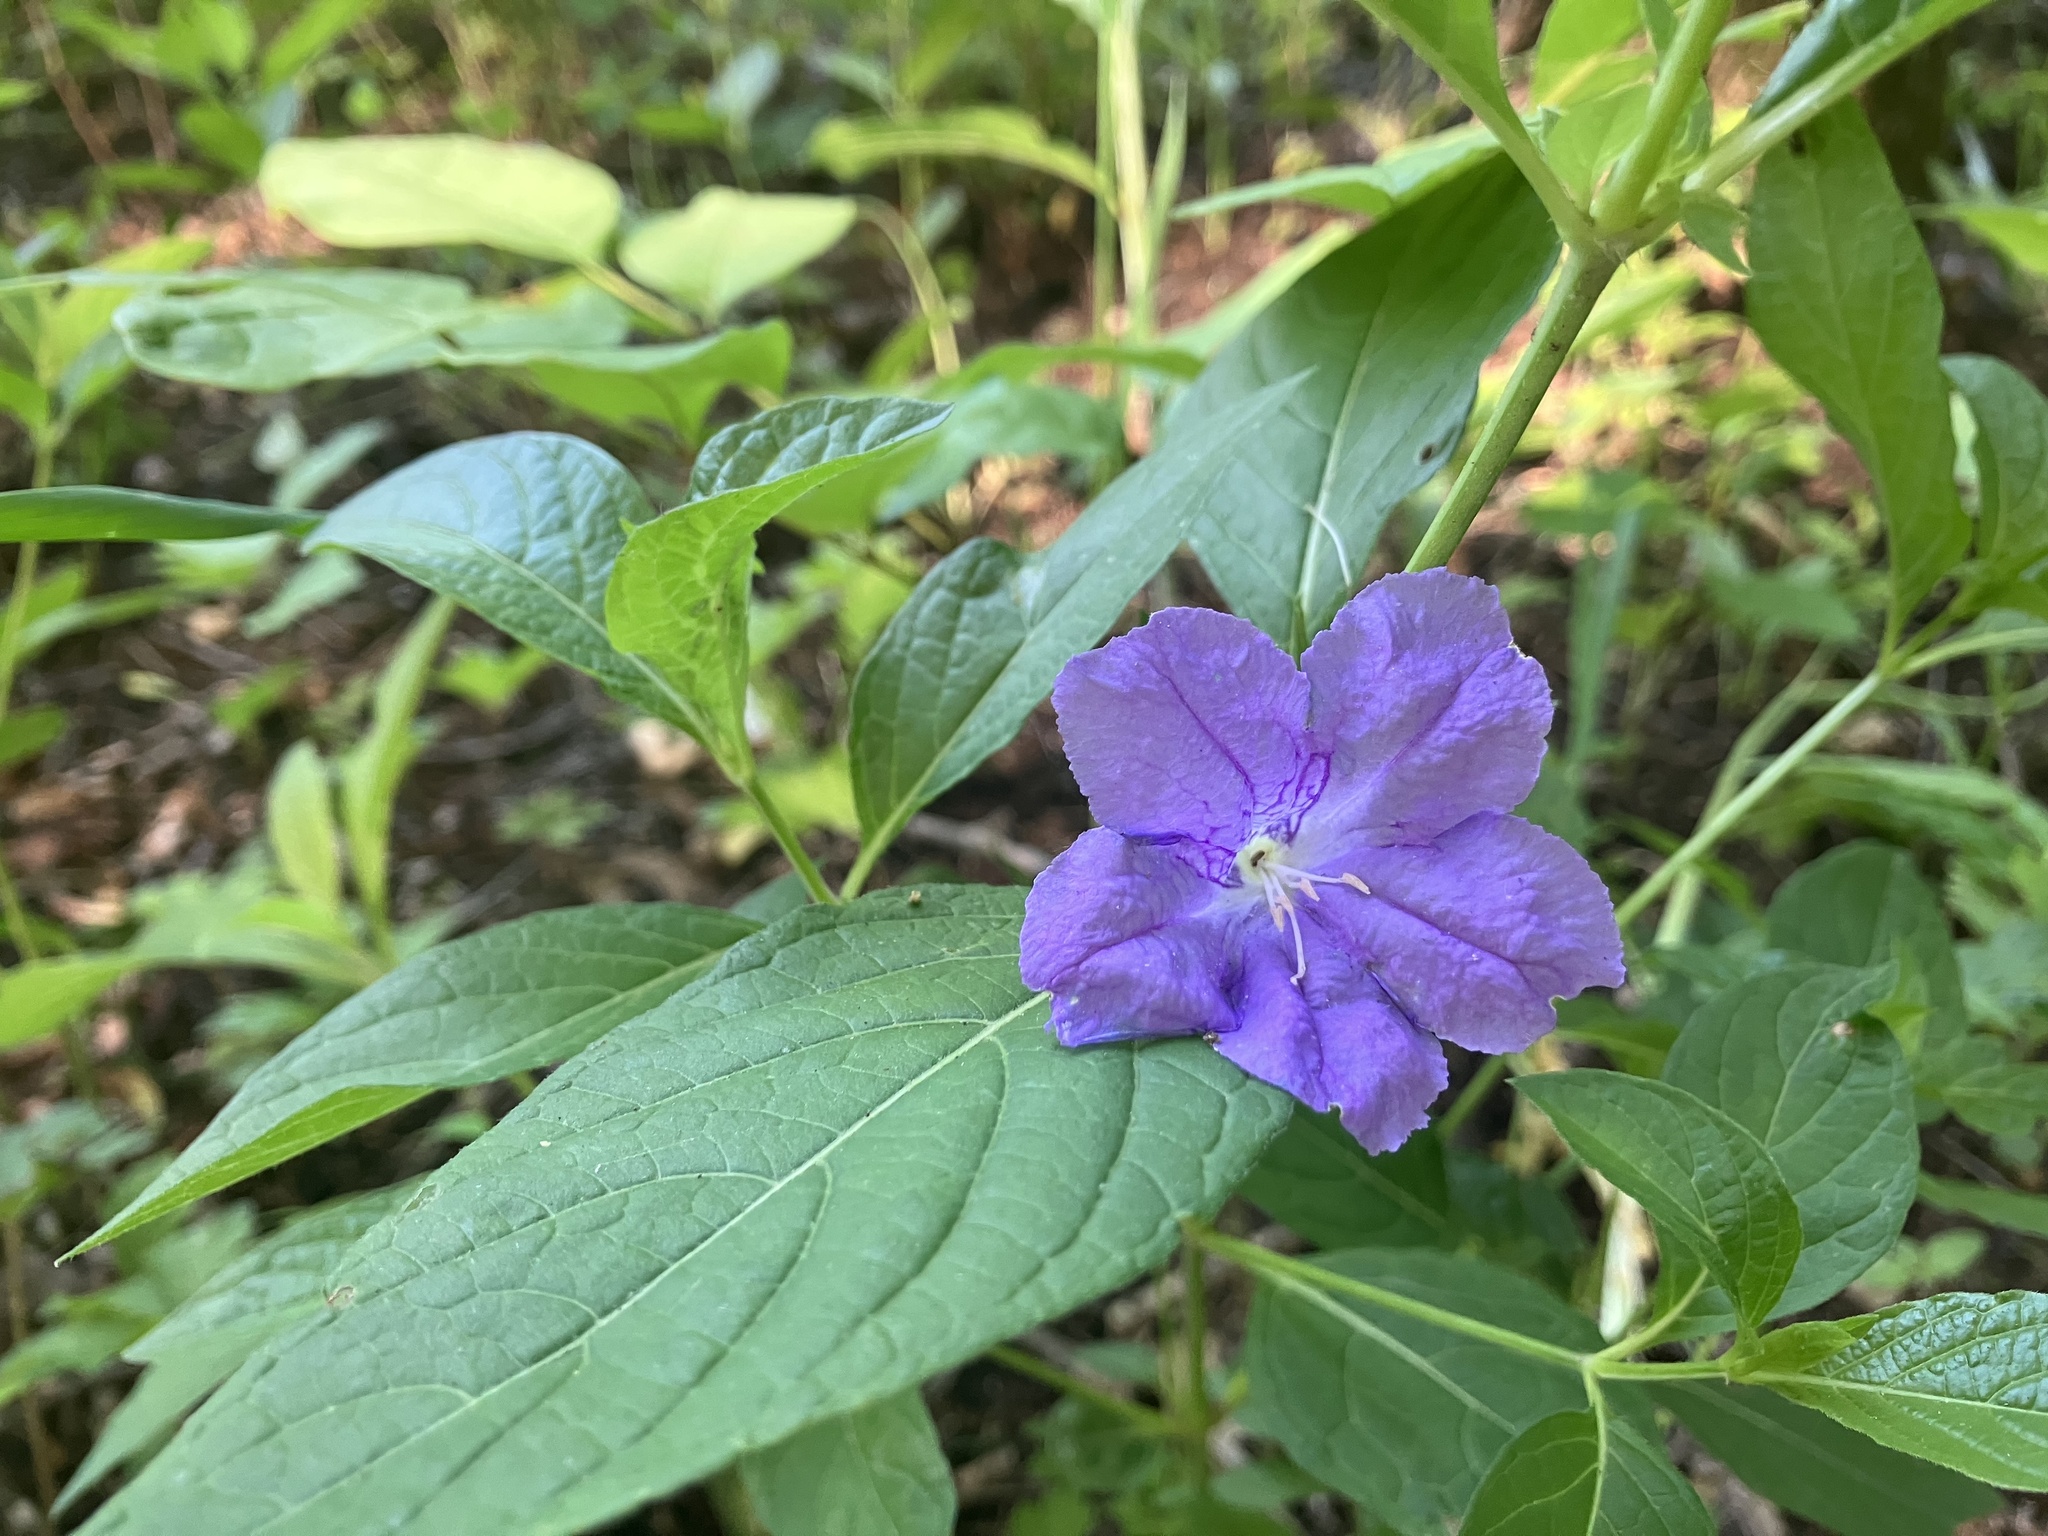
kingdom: Plantae
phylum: Tracheophyta
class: Magnoliopsida
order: Lamiales
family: Acanthaceae
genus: Ruellia
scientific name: Ruellia strepens
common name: Limestone wild petunia
